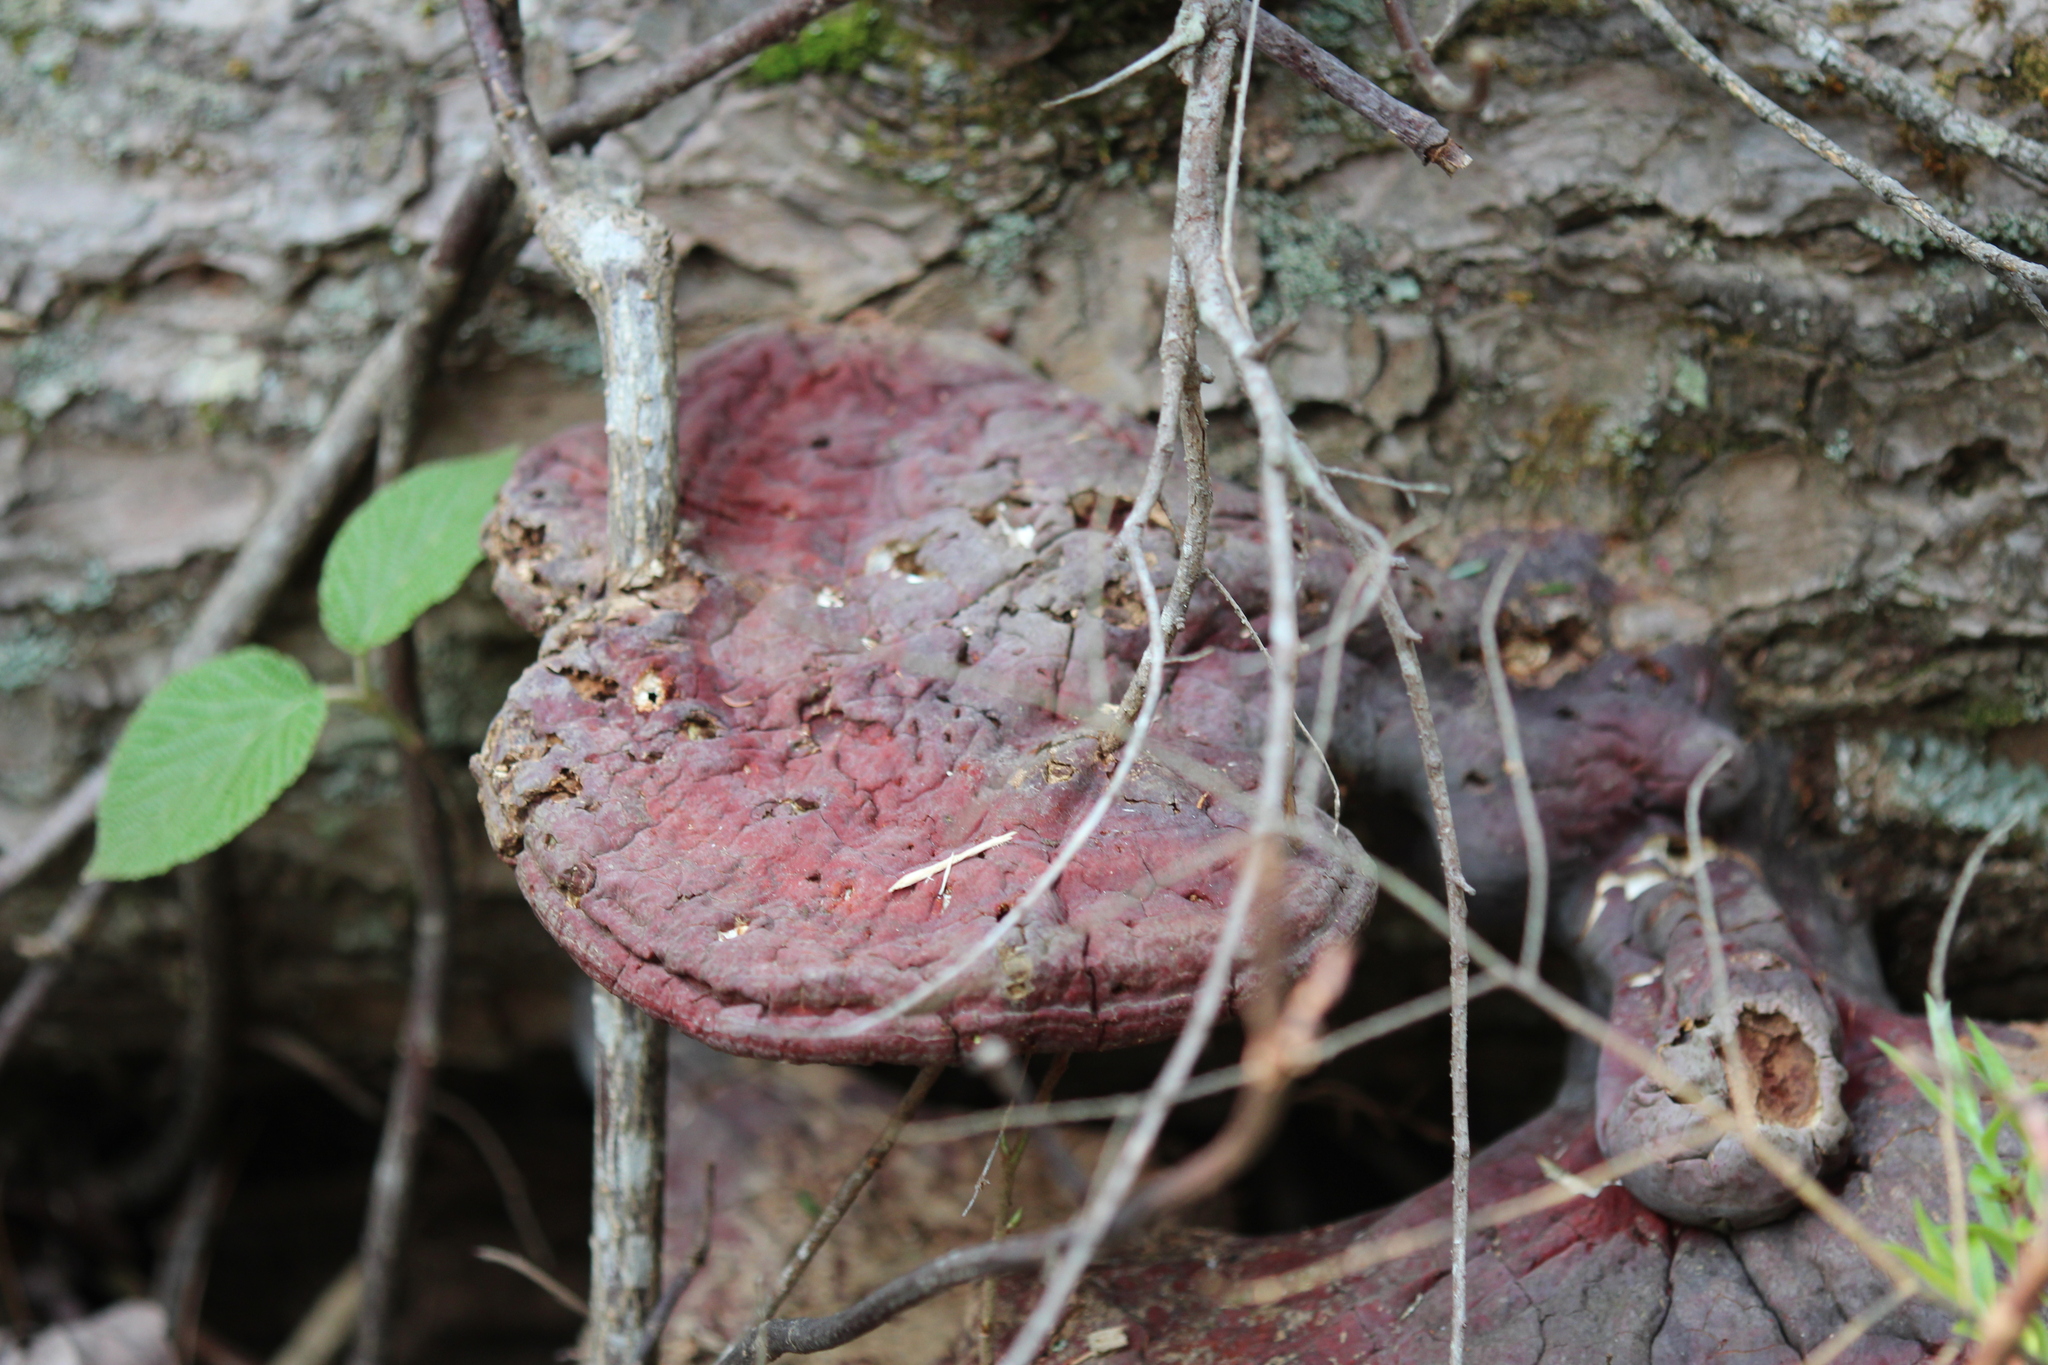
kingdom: Fungi
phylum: Basidiomycota
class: Agaricomycetes
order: Polyporales
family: Polyporaceae
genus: Ganoderma
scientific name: Ganoderma tsugae
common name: Hemlock varnish shelf
